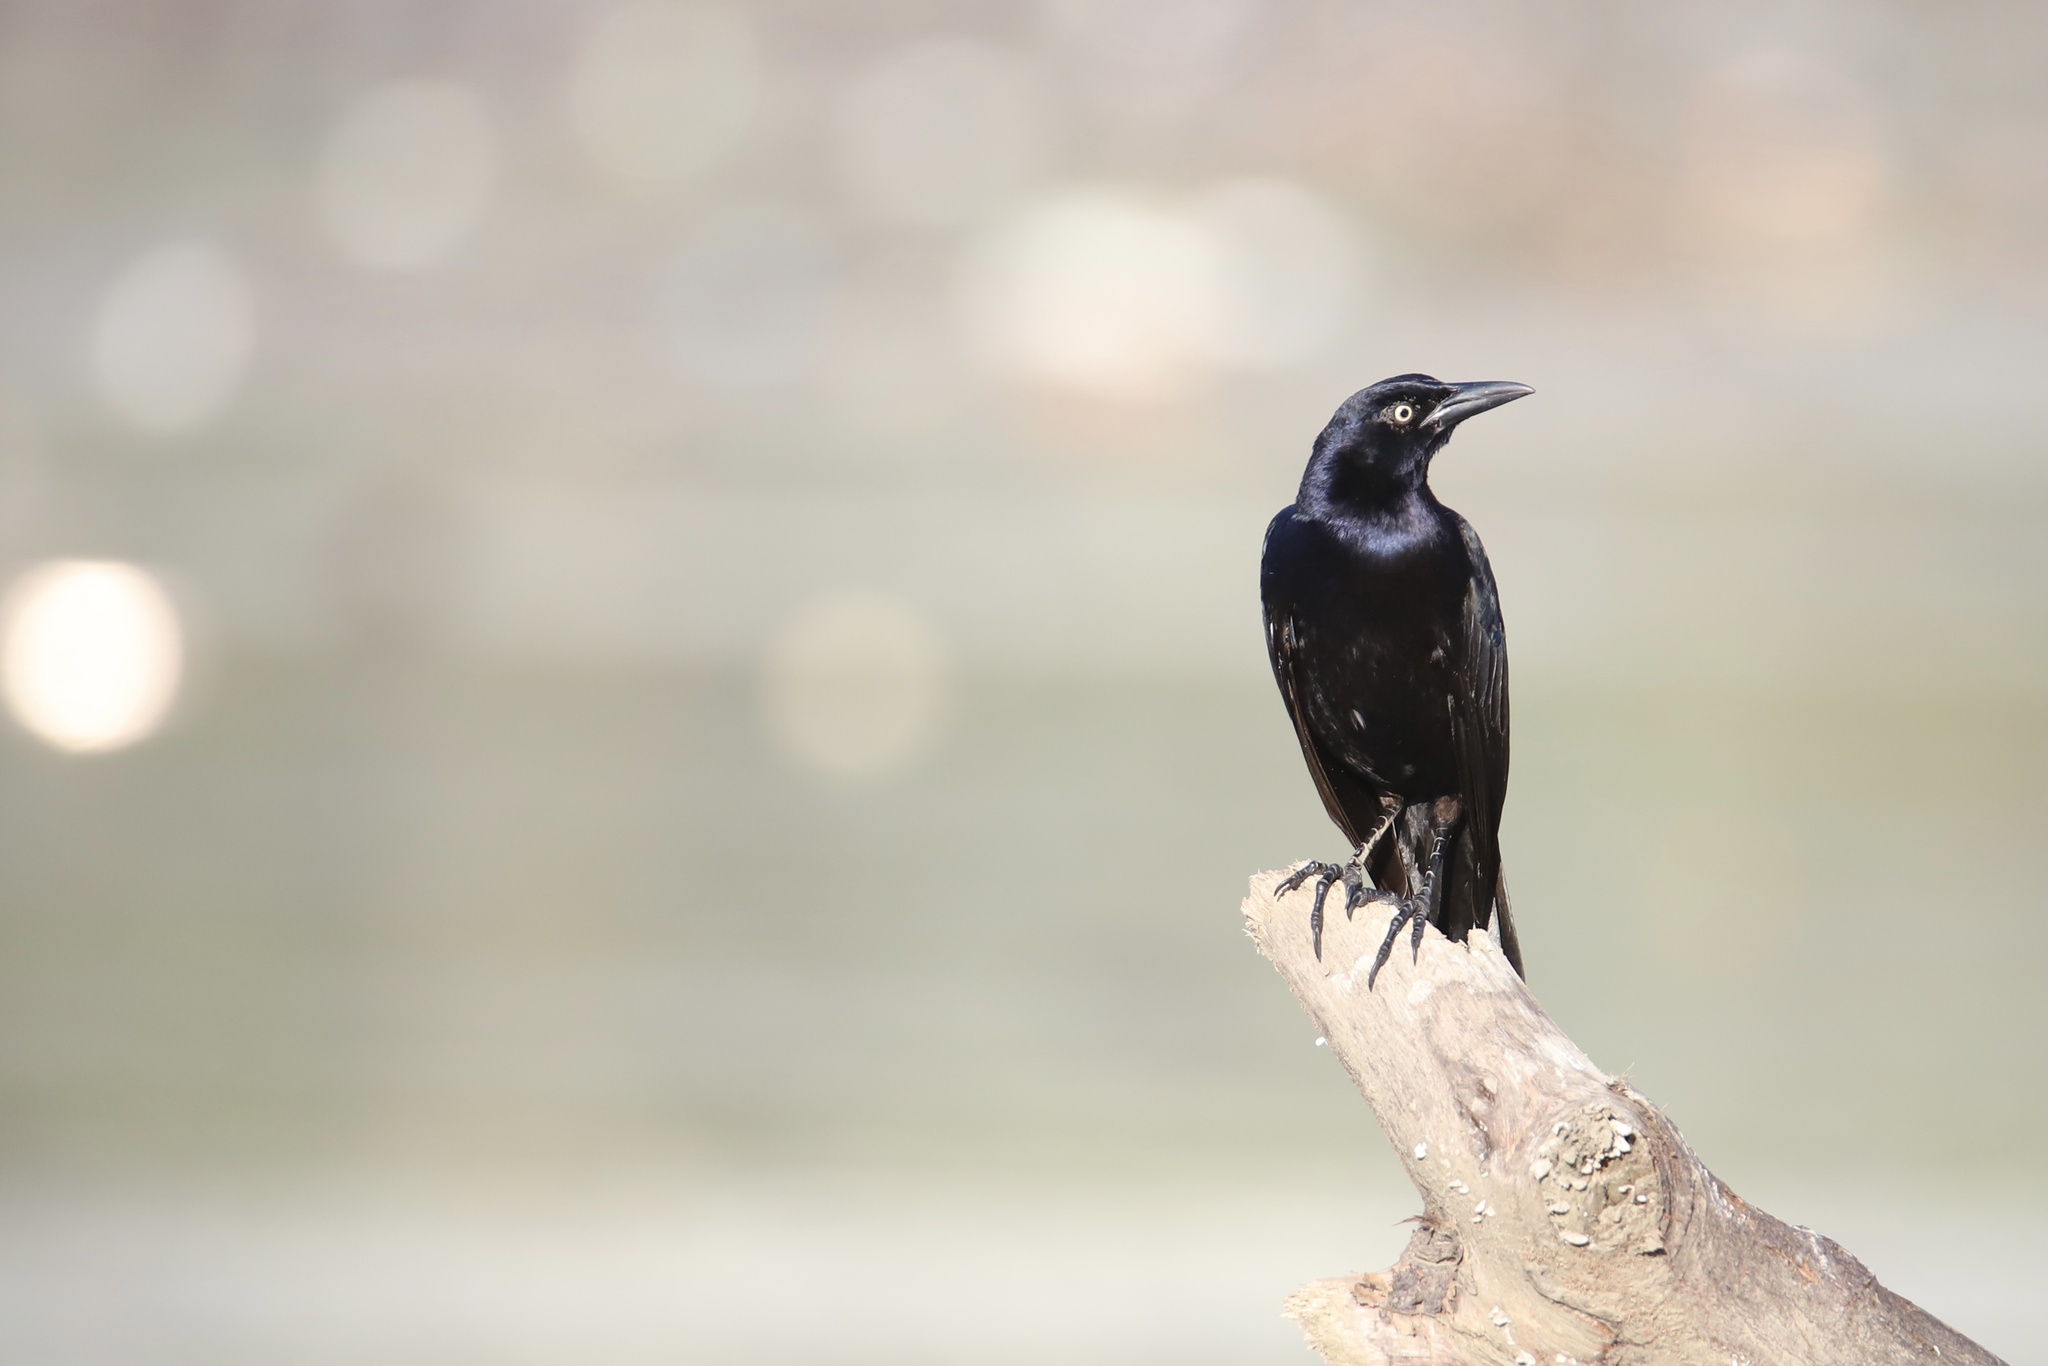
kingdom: Animalia
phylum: Chordata
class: Aves
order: Passeriformes
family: Icteridae
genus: Quiscalus
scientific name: Quiscalus mexicanus
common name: Great-tailed grackle
